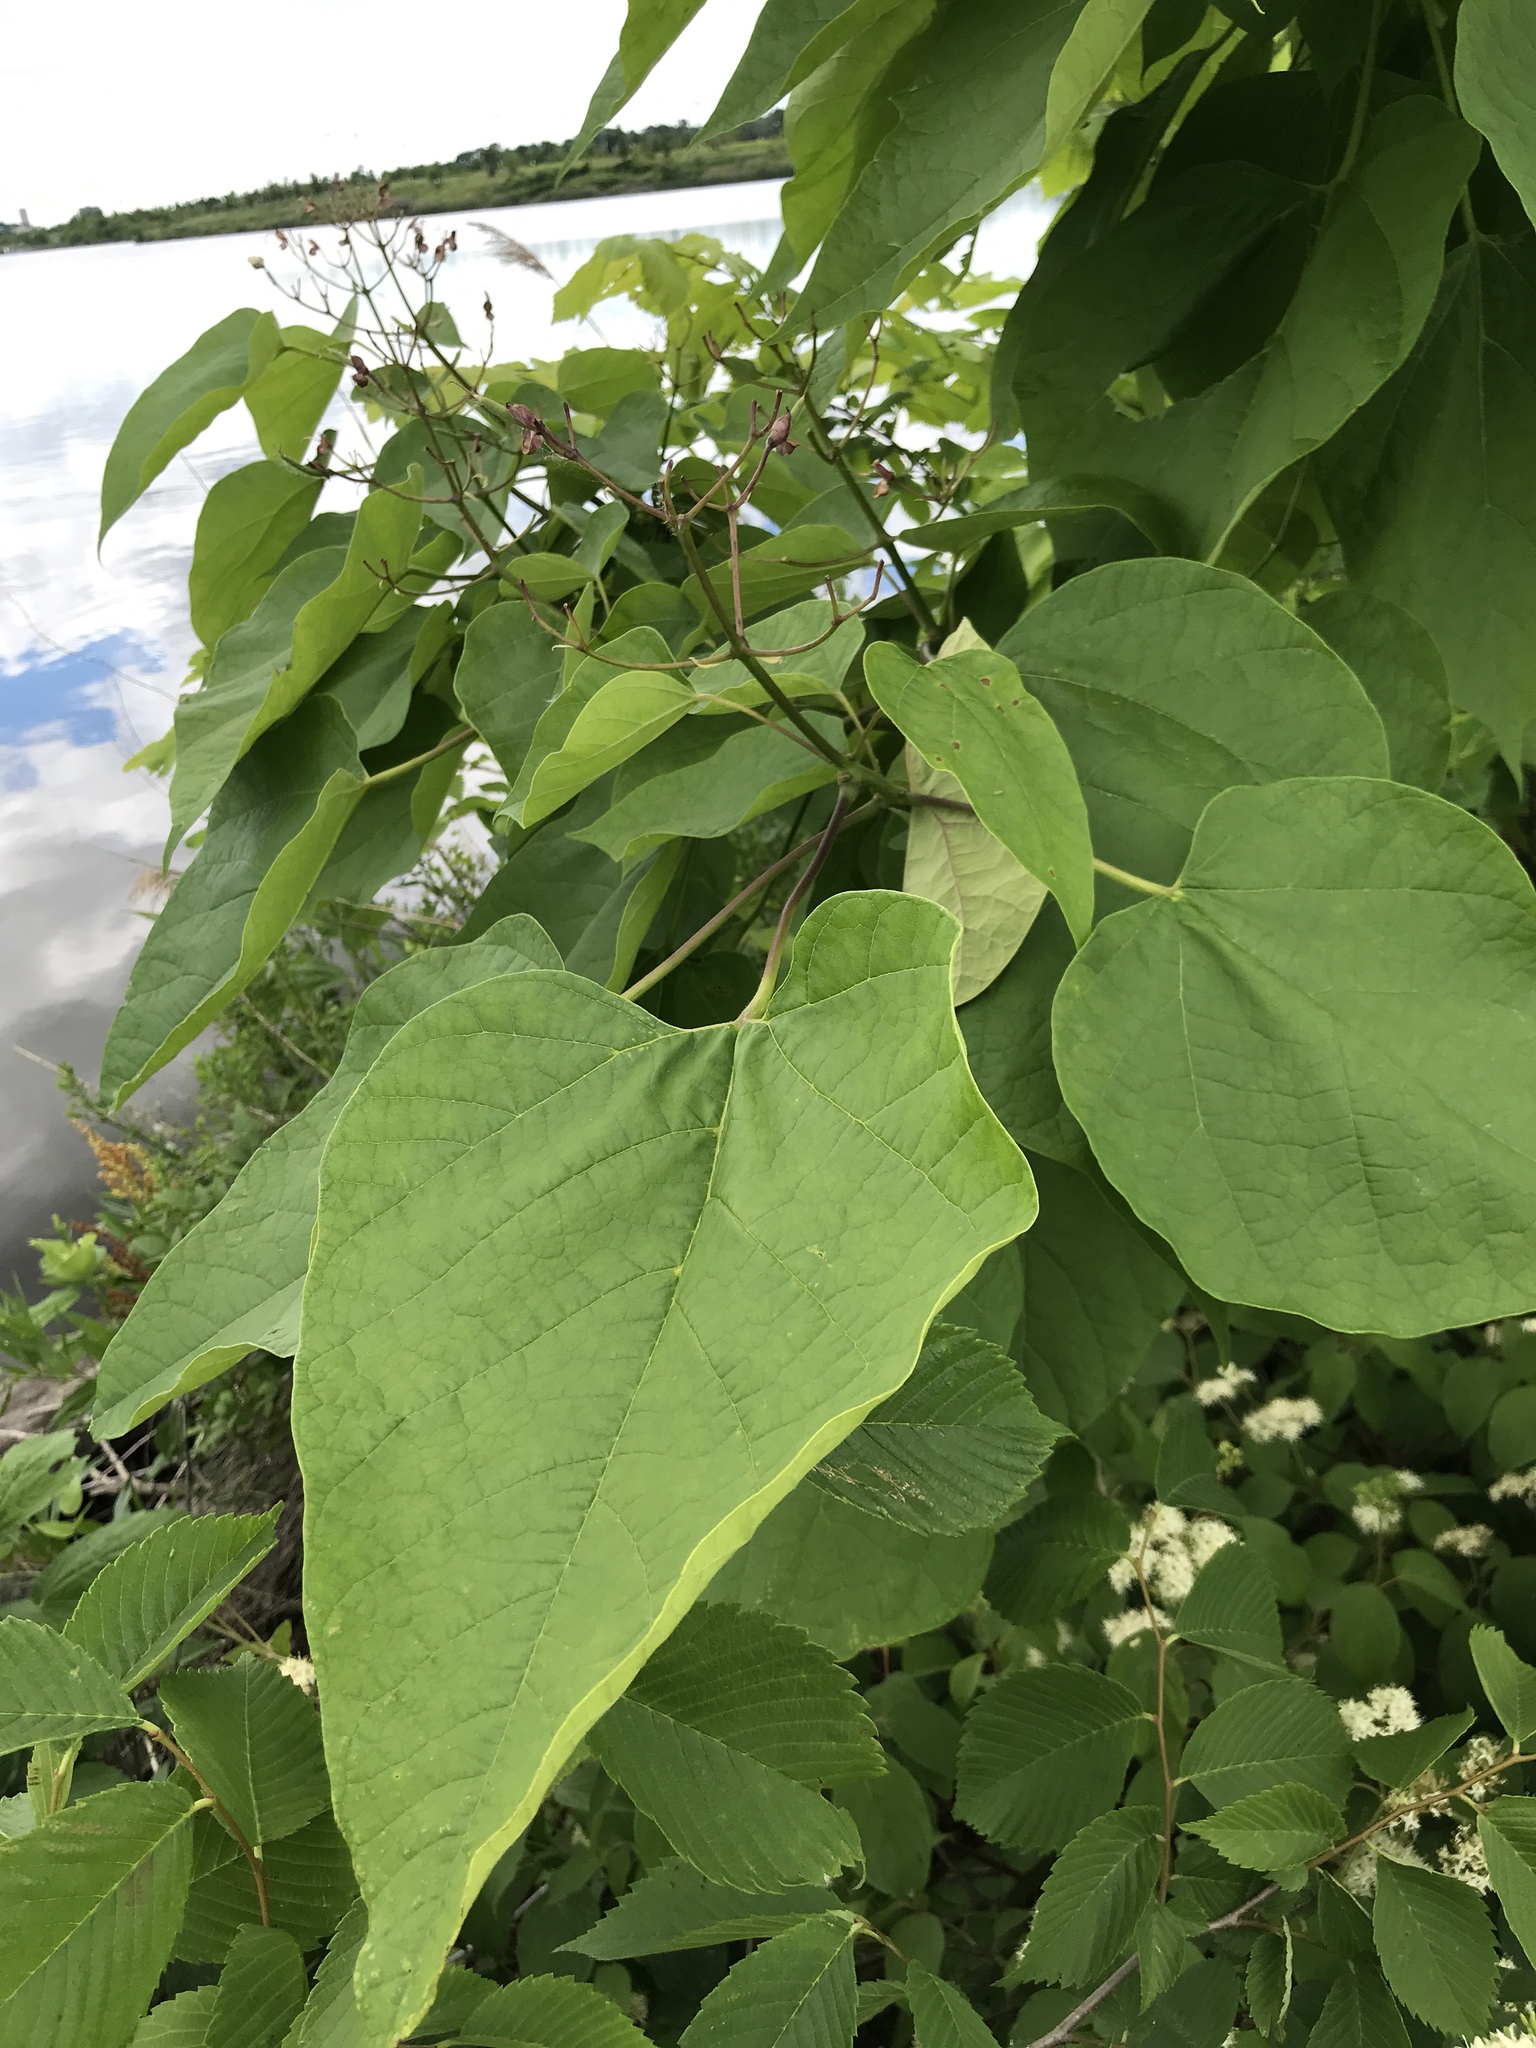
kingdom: Plantae
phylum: Tracheophyta
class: Magnoliopsida
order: Lamiales
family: Bignoniaceae
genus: Catalpa
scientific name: Catalpa speciosa
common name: Northern catalpa
